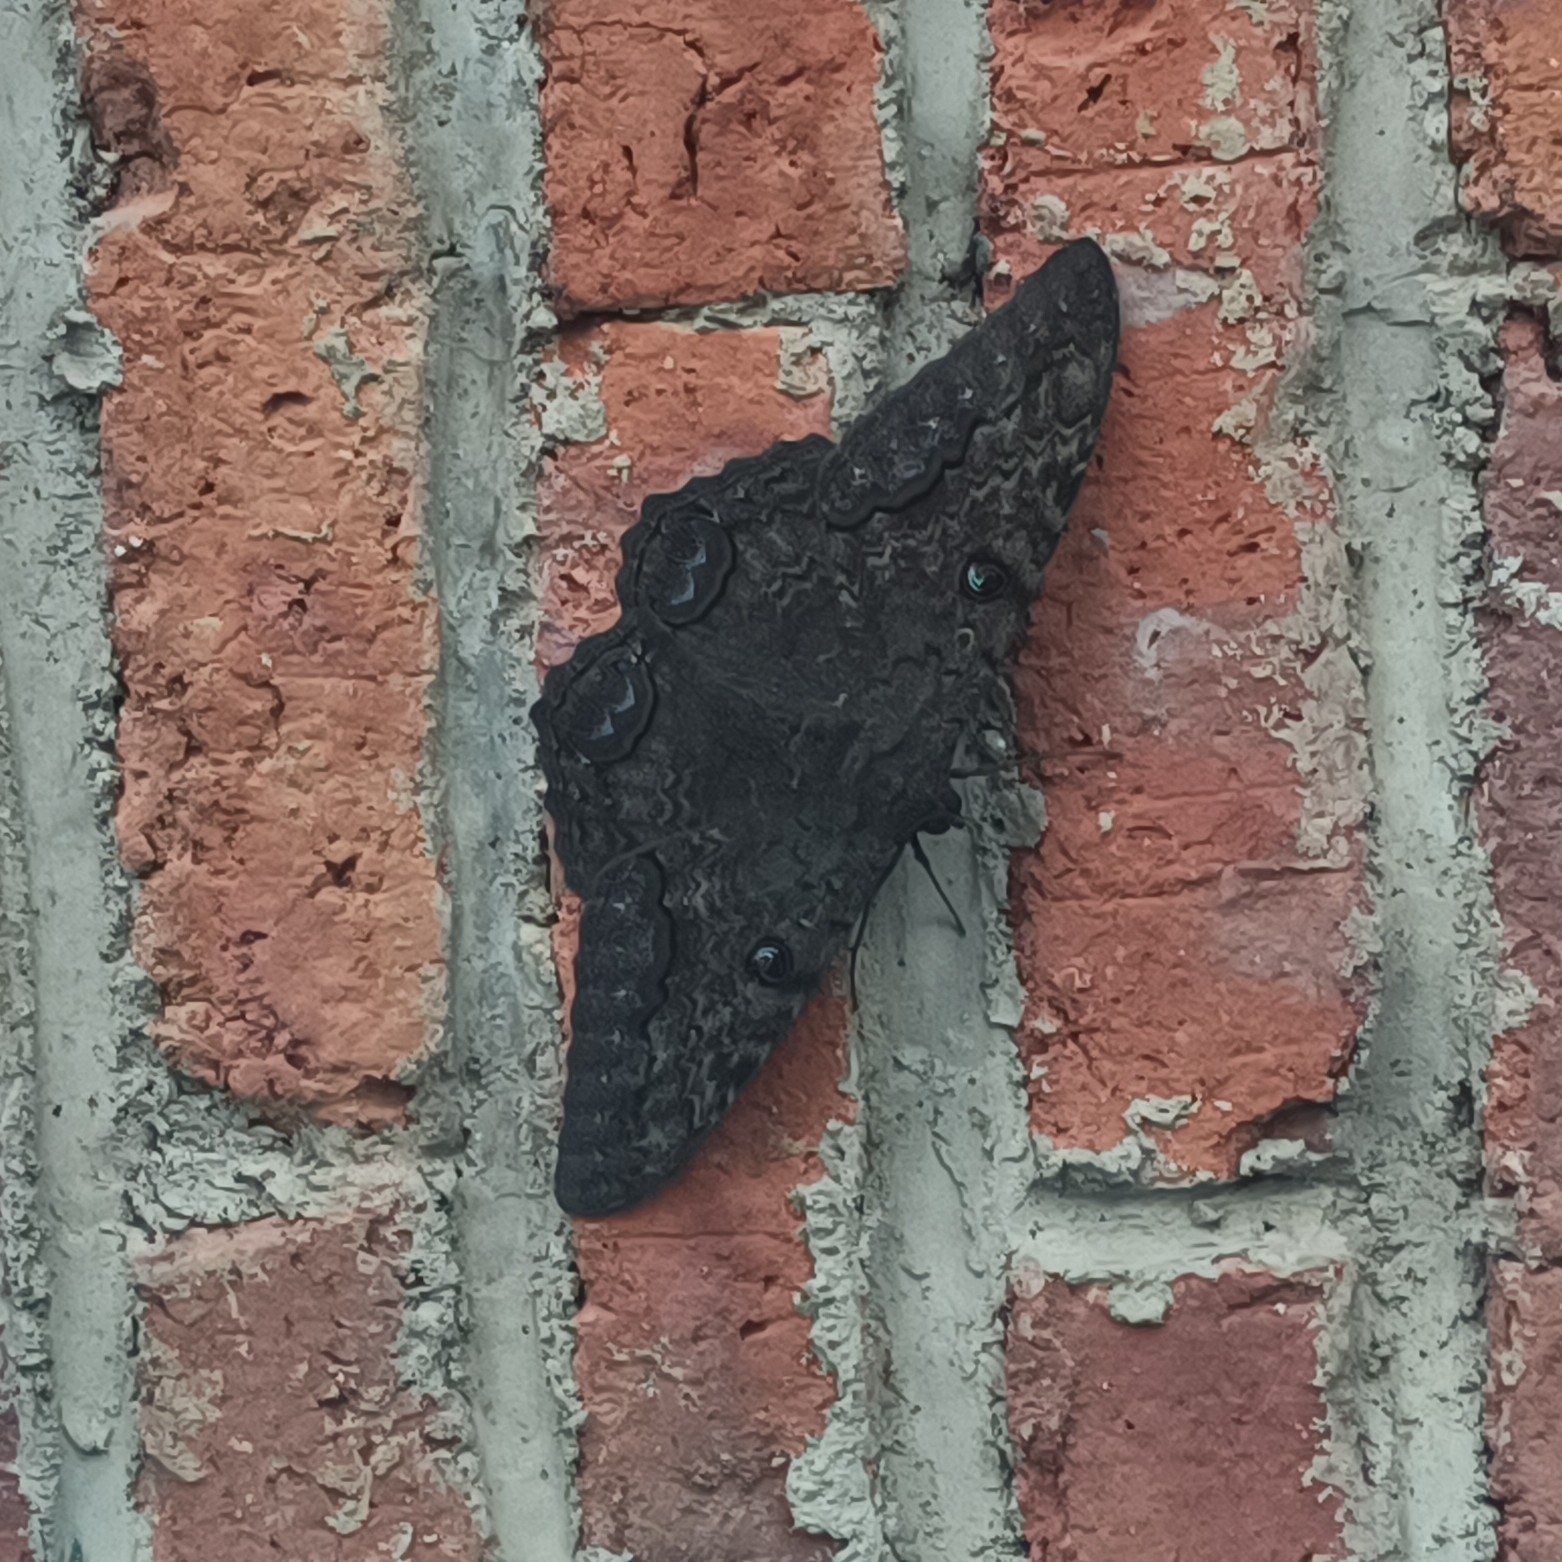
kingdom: Animalia
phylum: Arthropoda
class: Insecta
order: Lepidoptera
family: Erebidae
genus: Ascalapha
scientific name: Ascalapha odorata
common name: Black witch
